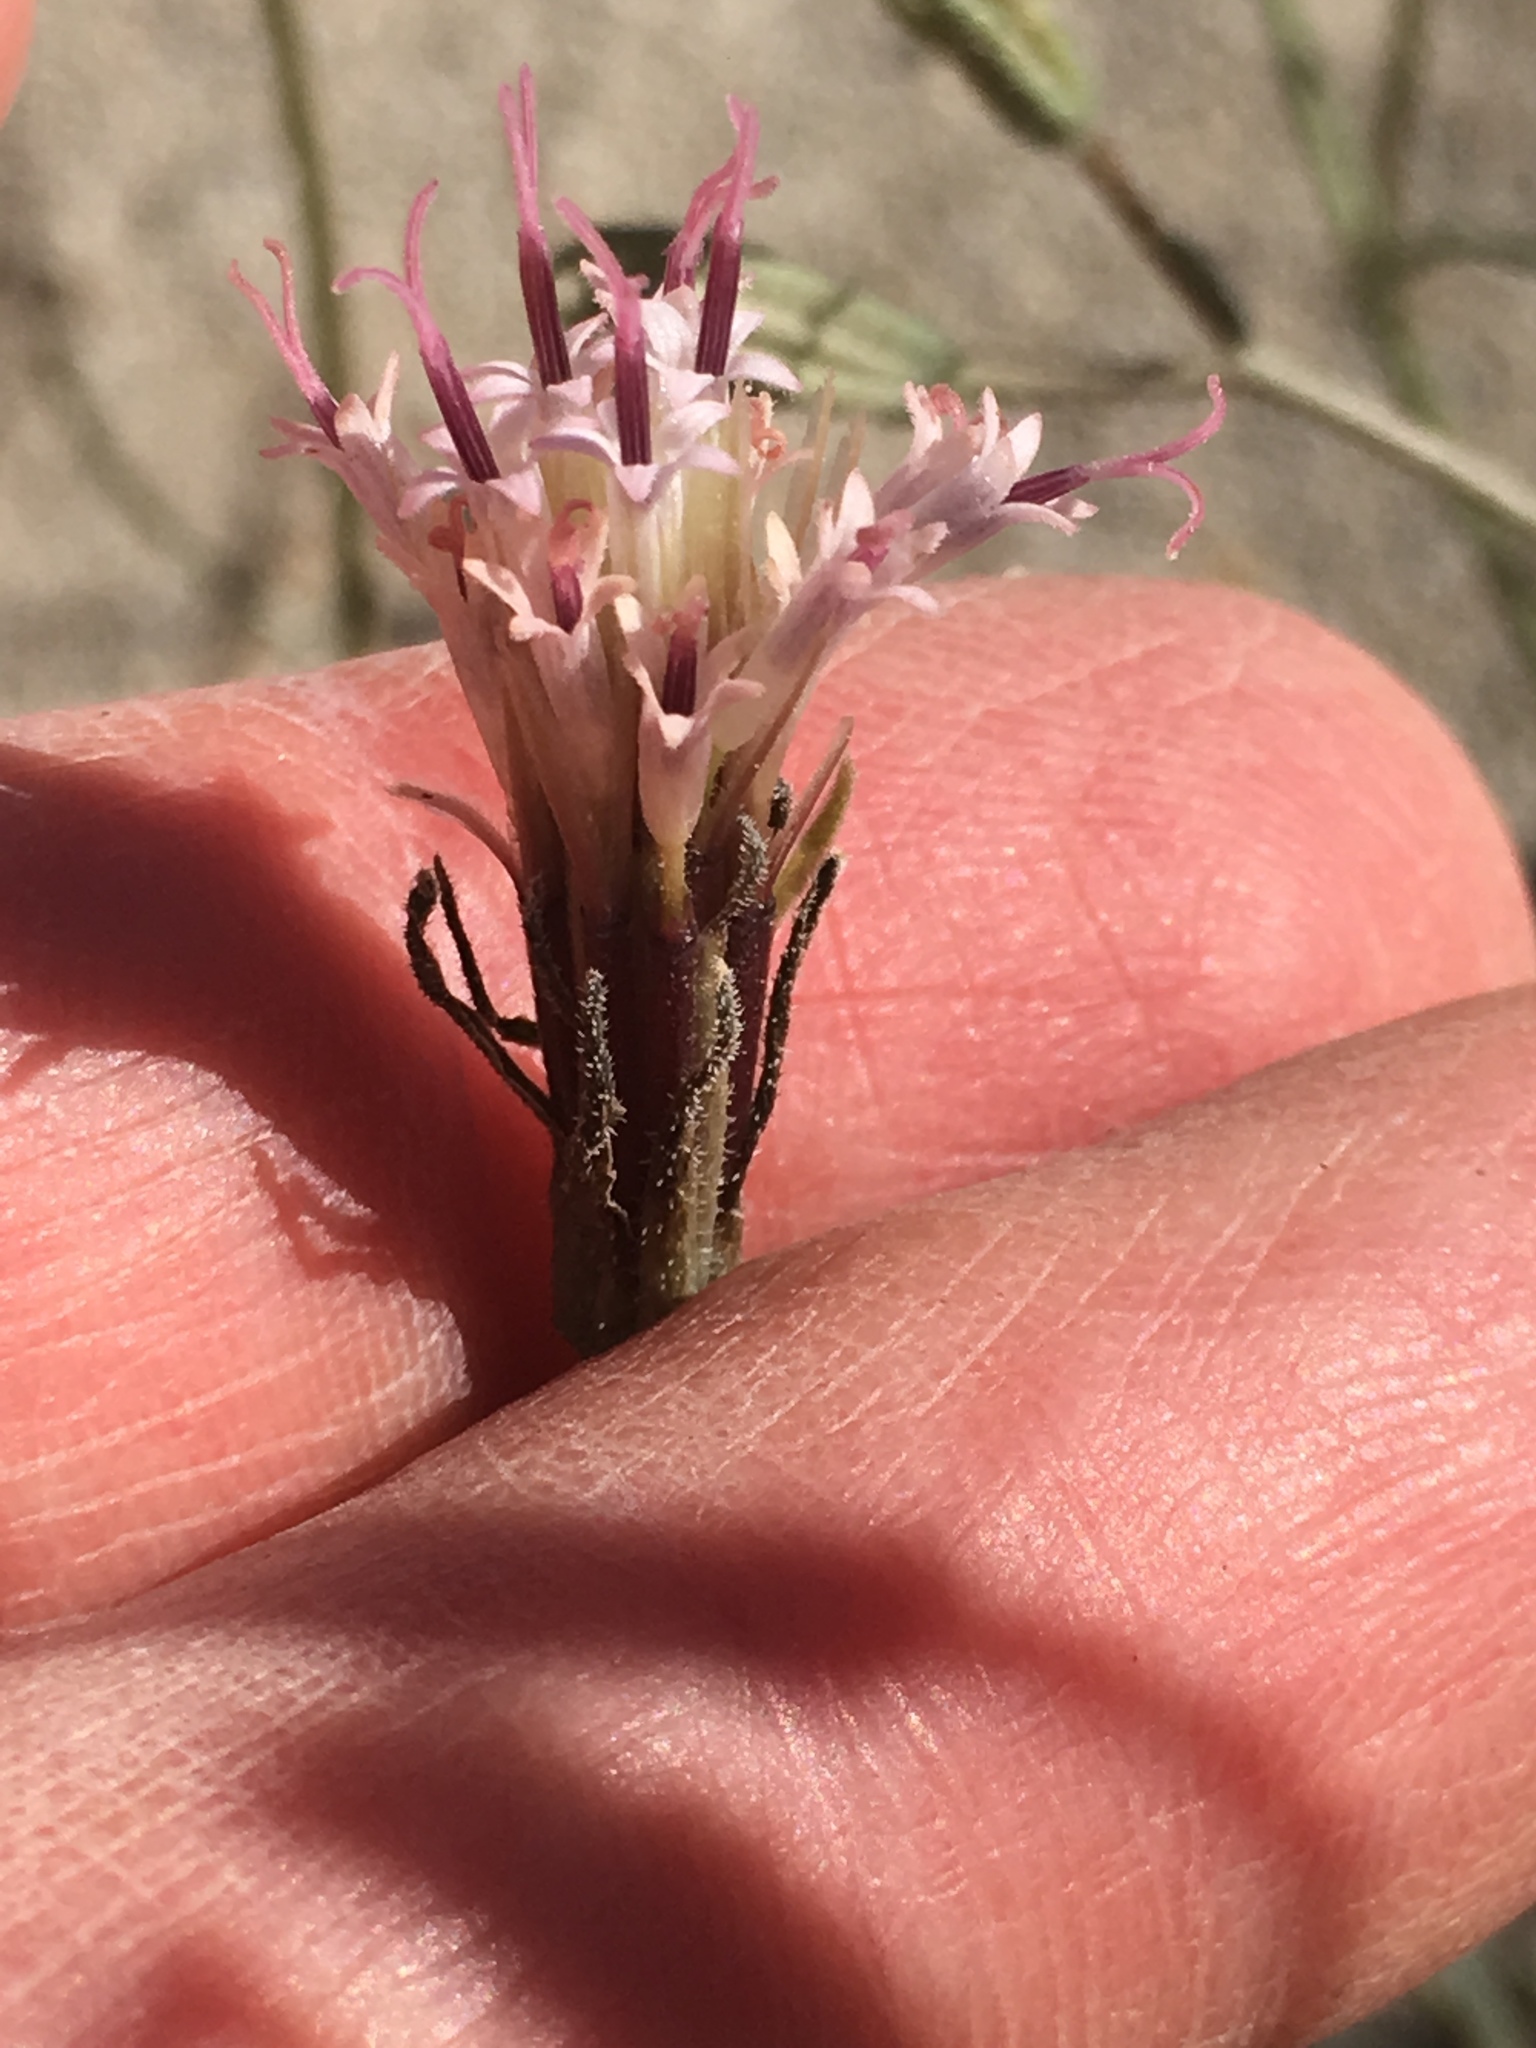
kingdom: Plantae
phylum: Tracheophyta
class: Magnoliopsida
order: Asterales
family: Asteraceae
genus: Palafoxia
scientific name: Palafoxia arida
